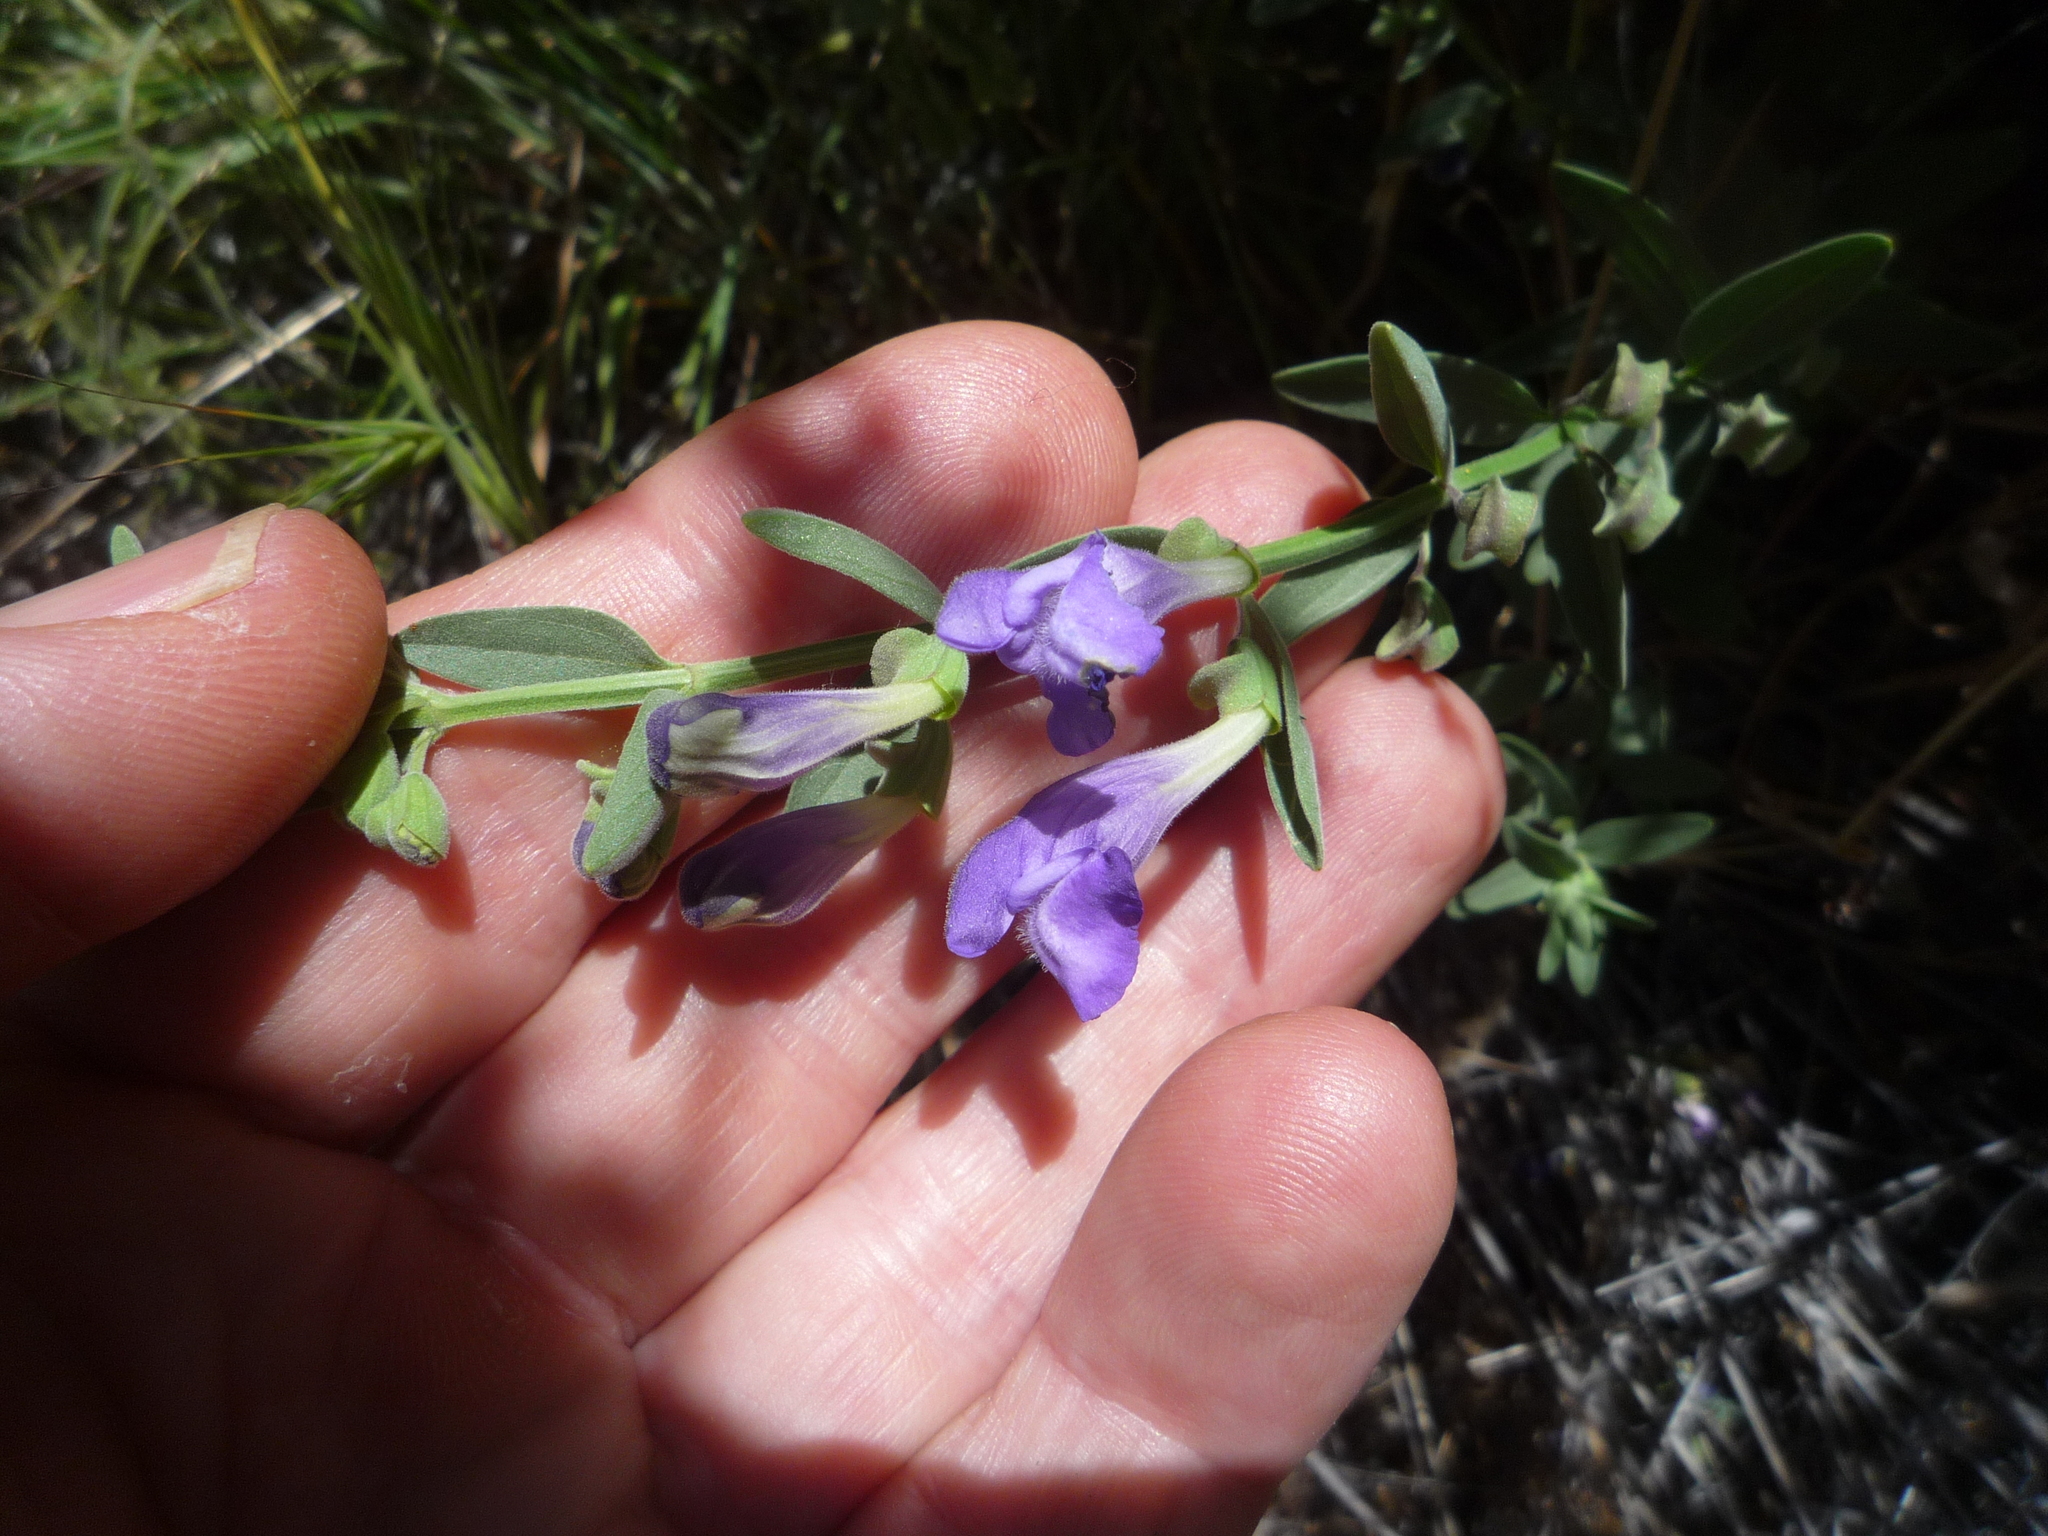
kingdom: Plantae
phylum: Tracheophyta
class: Magnoliopsida
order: Lamiales
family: Lamiaceae
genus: Scutellaria
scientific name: Scutellaria siphocampyloides
